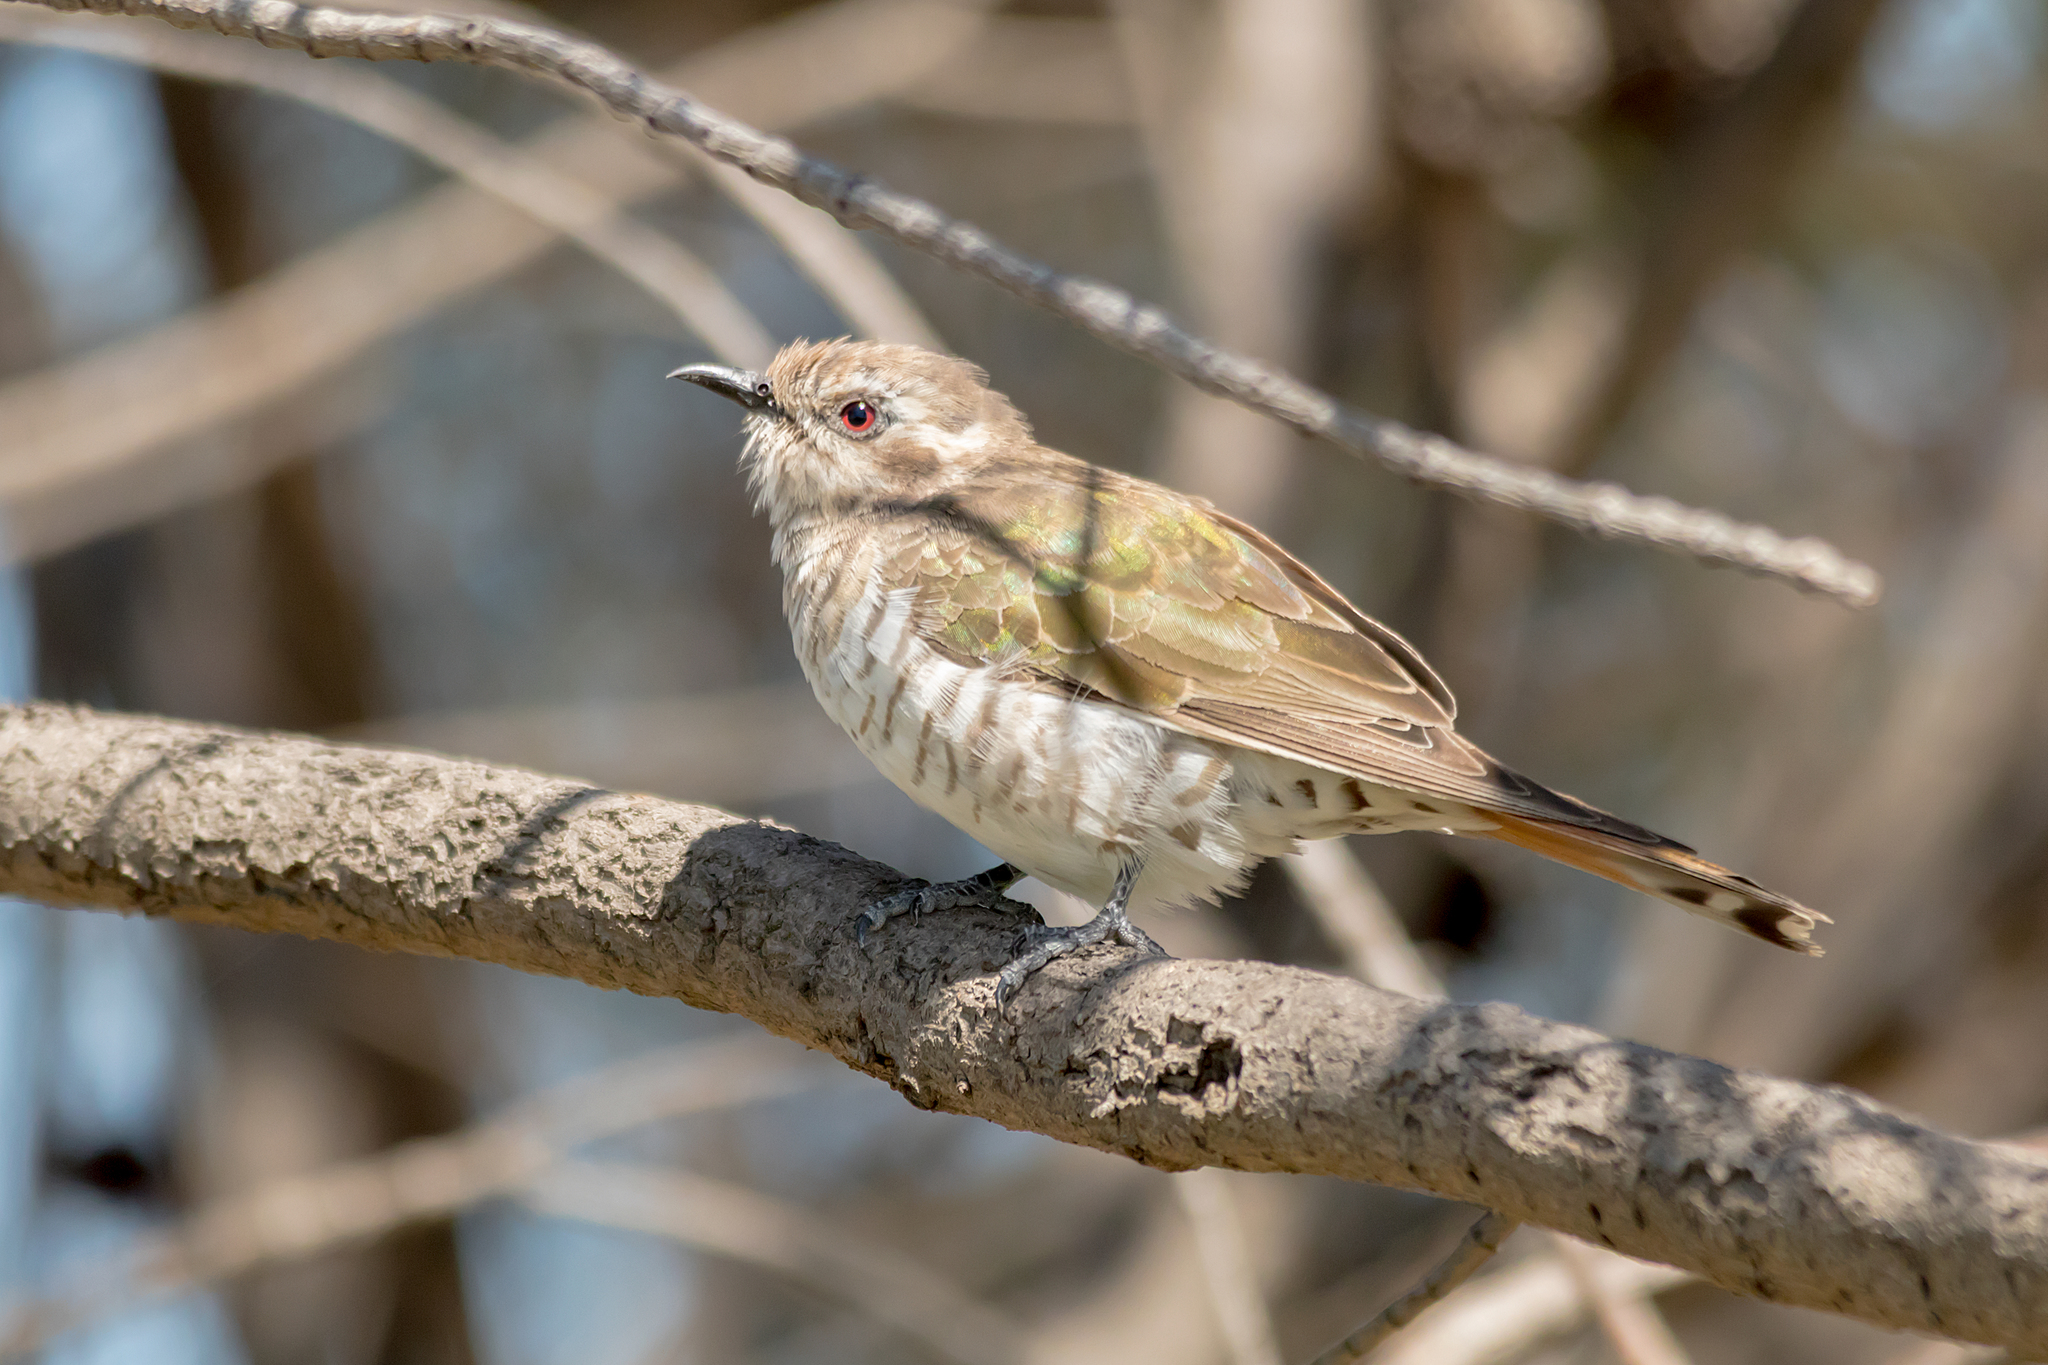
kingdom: Animalia
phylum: Chordata
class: Aves
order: Cuculiformes
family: Cuculidae
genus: Chrysococcyx
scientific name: Chrysococcyx basalis
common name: Horsfield's bronze cuckoo
